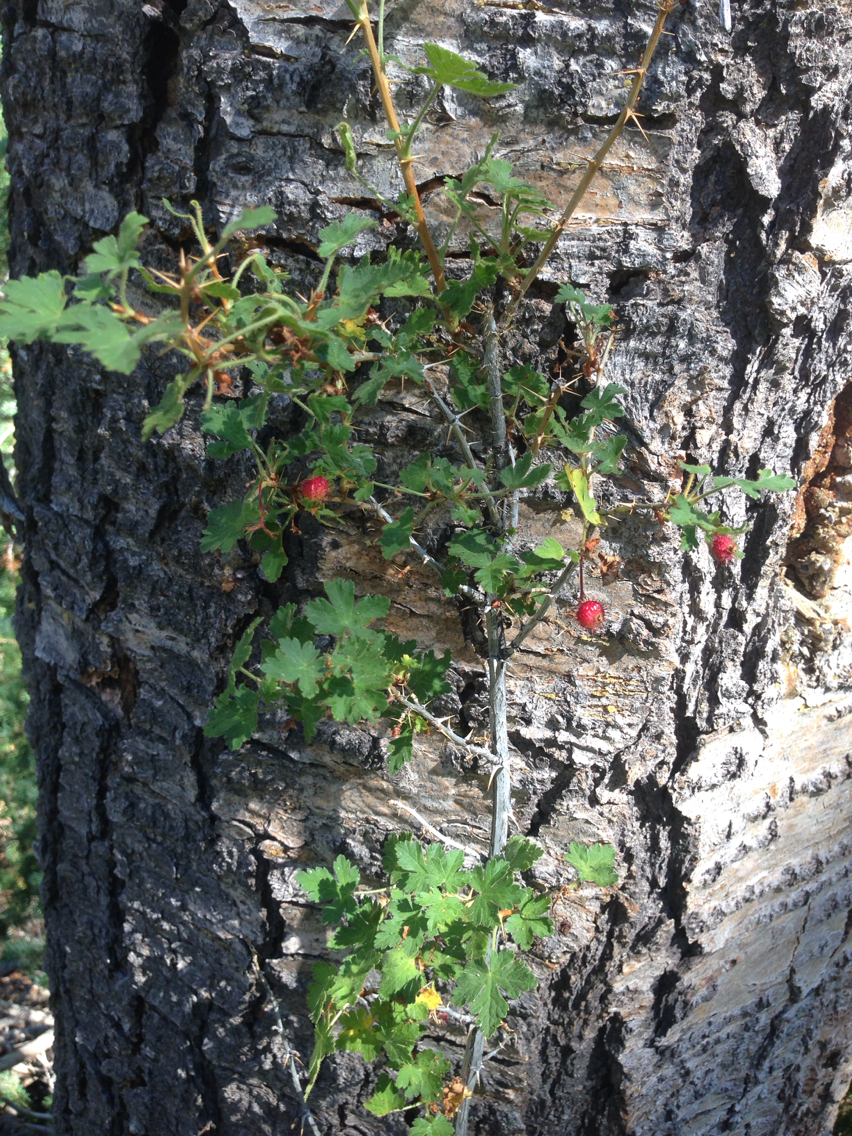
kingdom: Plantae
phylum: Tracheophyta
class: Magnoliopsida
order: Saxifragales
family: Grossulariaceae
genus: Ribes
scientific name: Ribes montigenum
